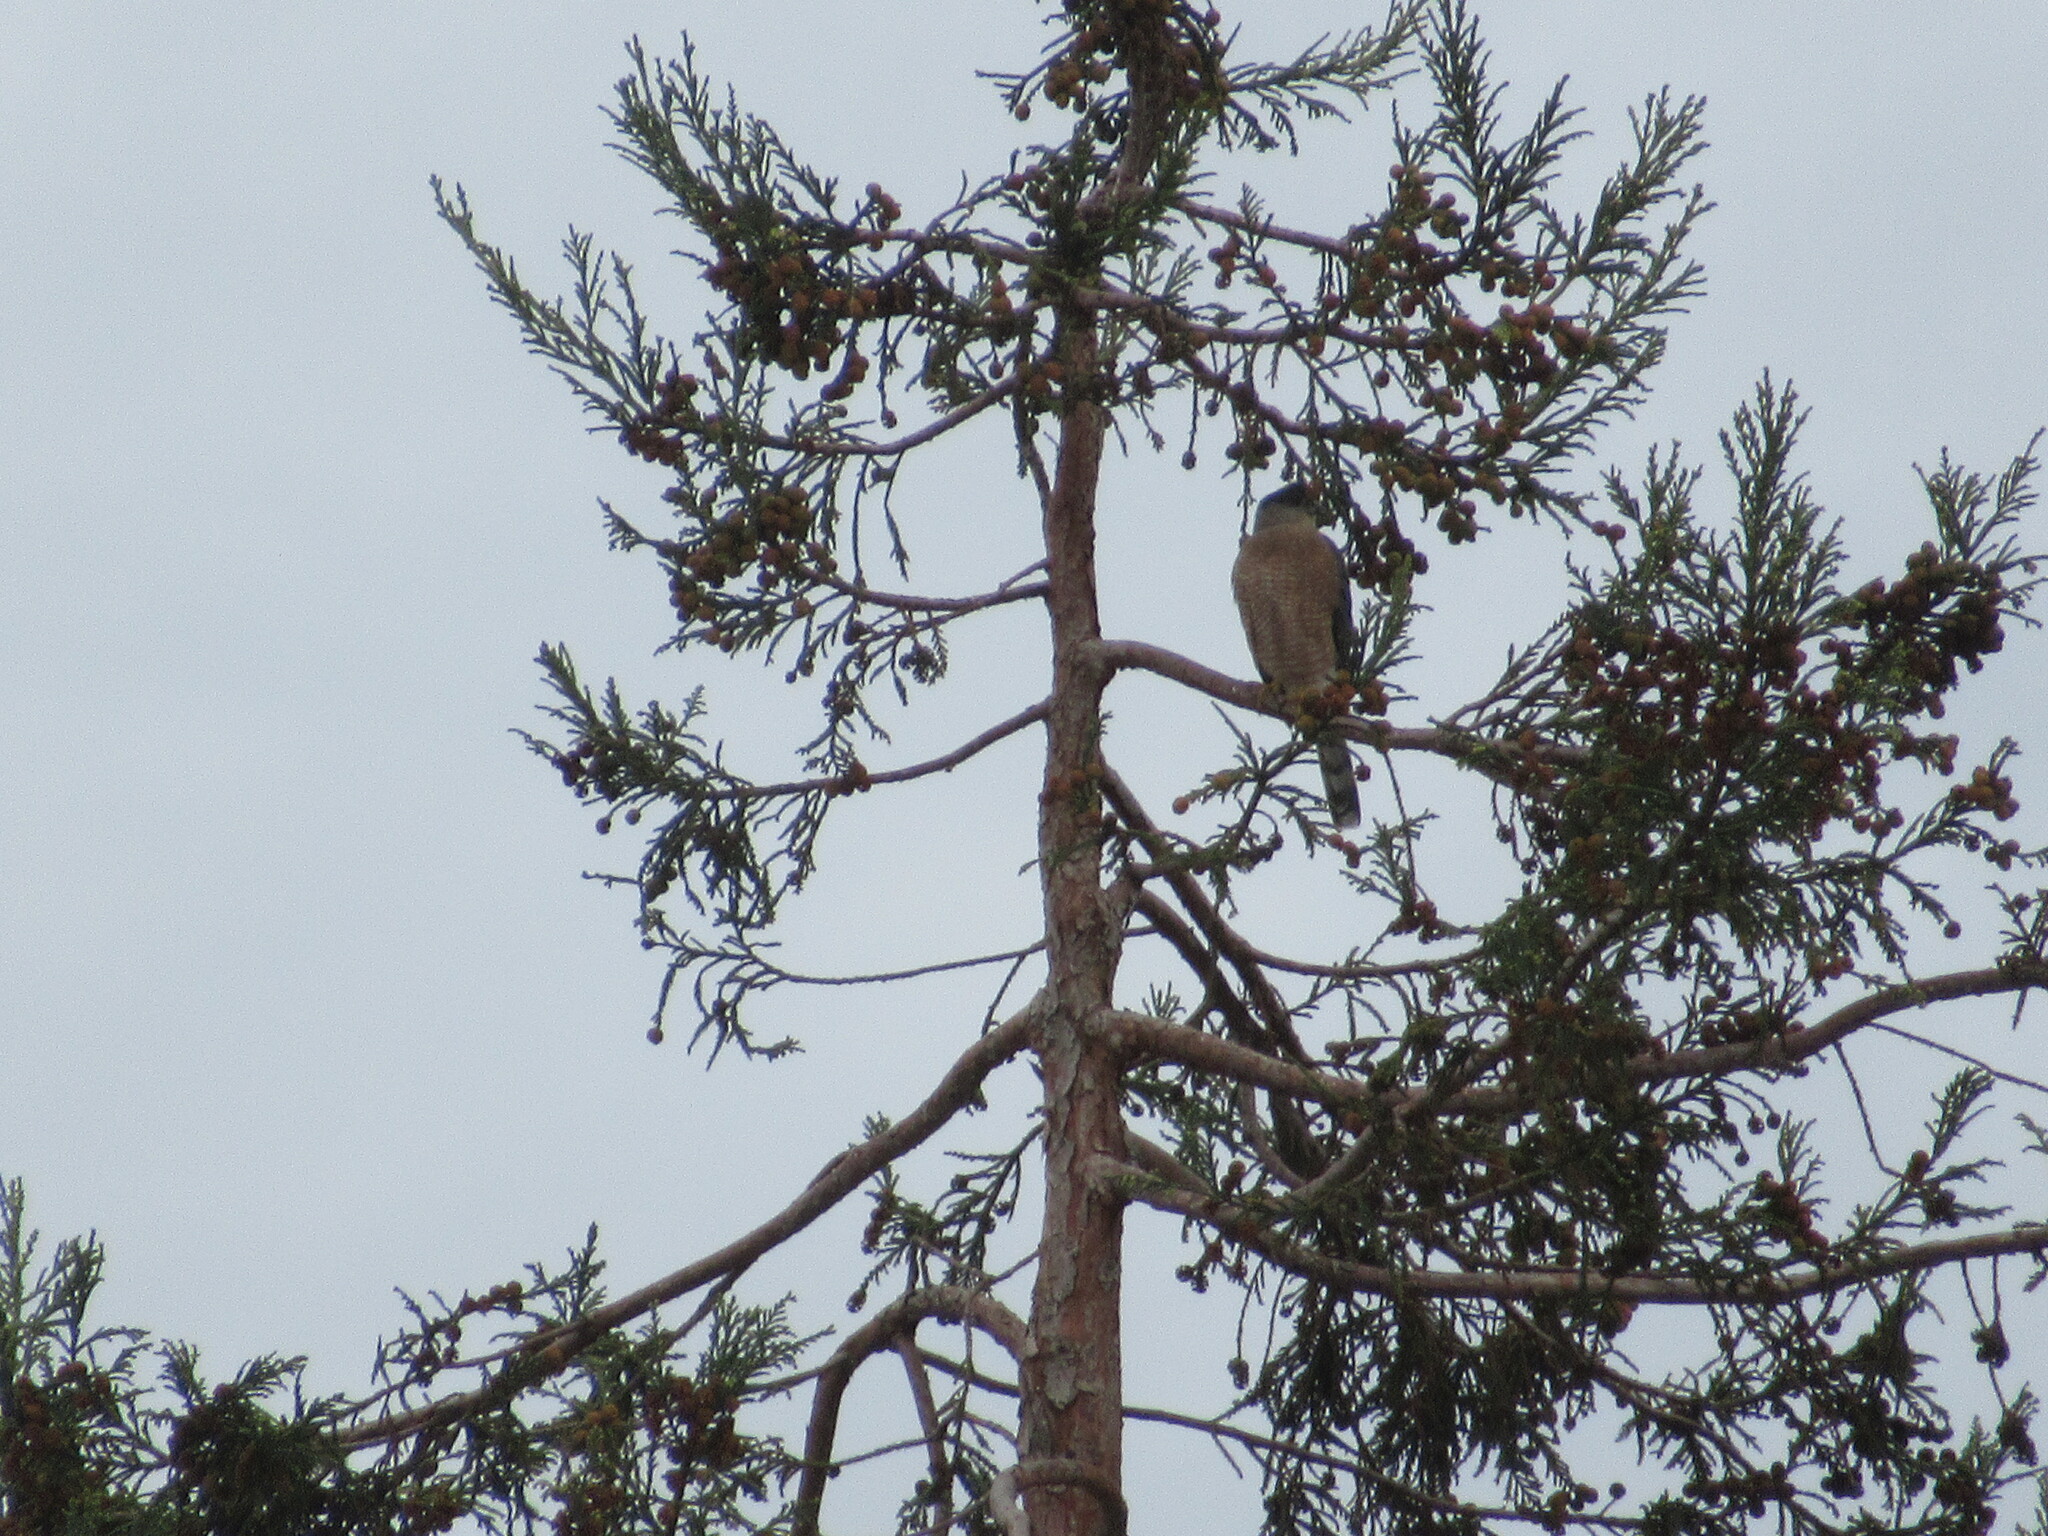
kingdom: Animalia
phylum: Chordata
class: Aves
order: Accipitriformes
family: Accipitridae
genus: Accipiter
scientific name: Accipiter cooperii
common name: Cooper's hawk
